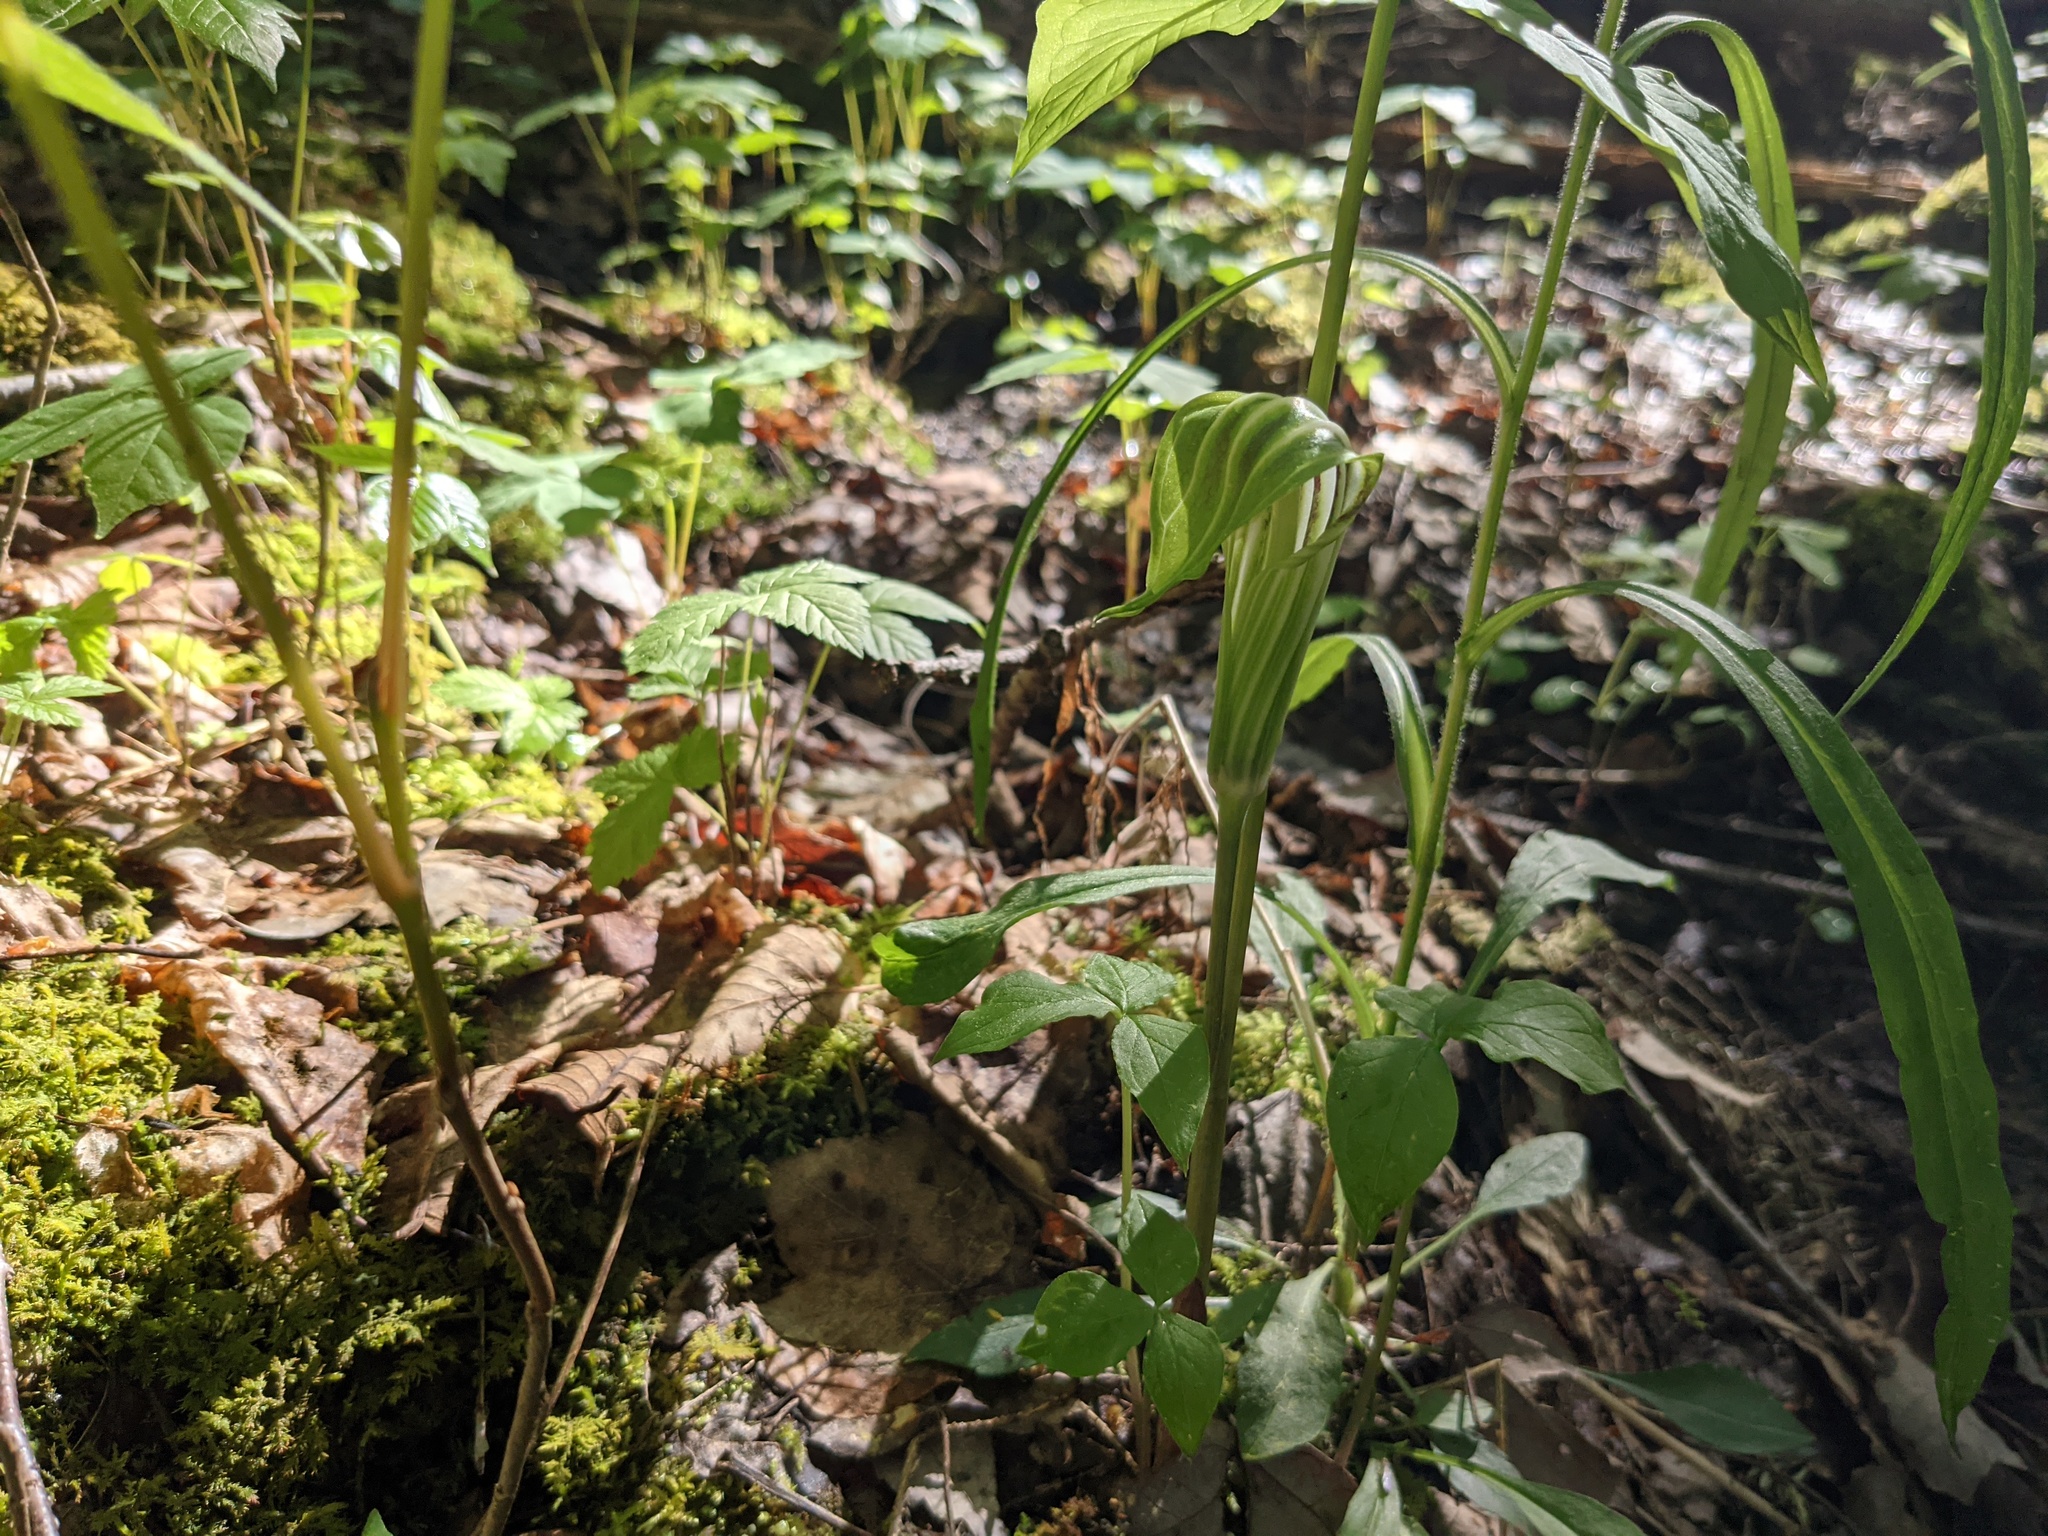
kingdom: Plantae
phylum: Tracheophyta
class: Liliopsida
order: Alismatales
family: Araceae
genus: Arisaema
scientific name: Arisaema stewardsonii
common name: Swamp jack-in-the-pulpit
